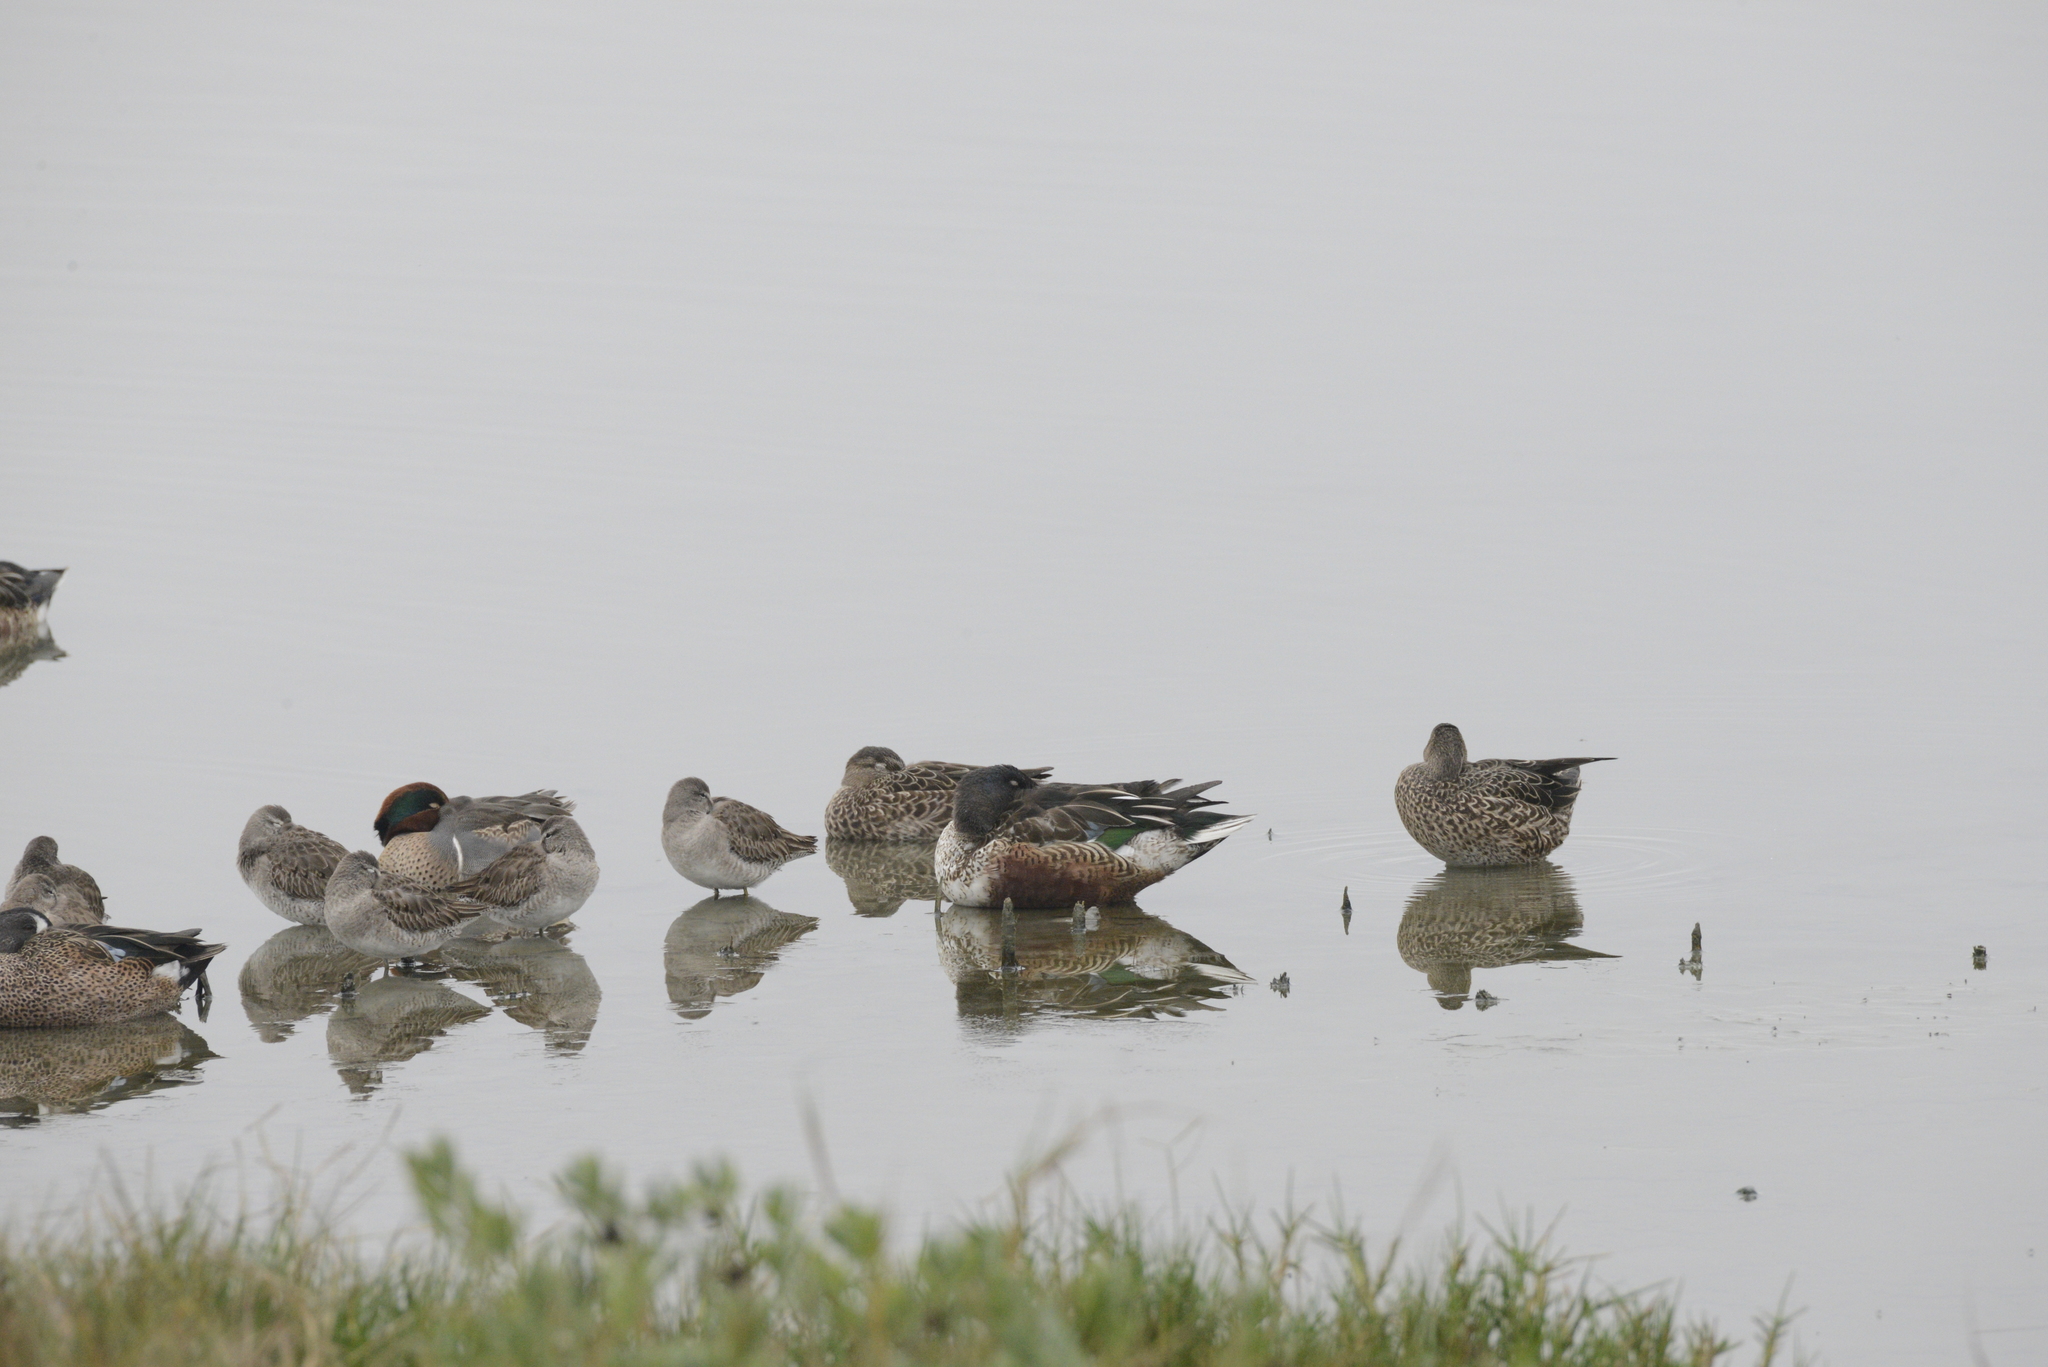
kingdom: Animalia
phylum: Chordata
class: Aves
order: Anseriformes
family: Anatidae
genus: Anas
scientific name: Anas crecca
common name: Eurasian teal
